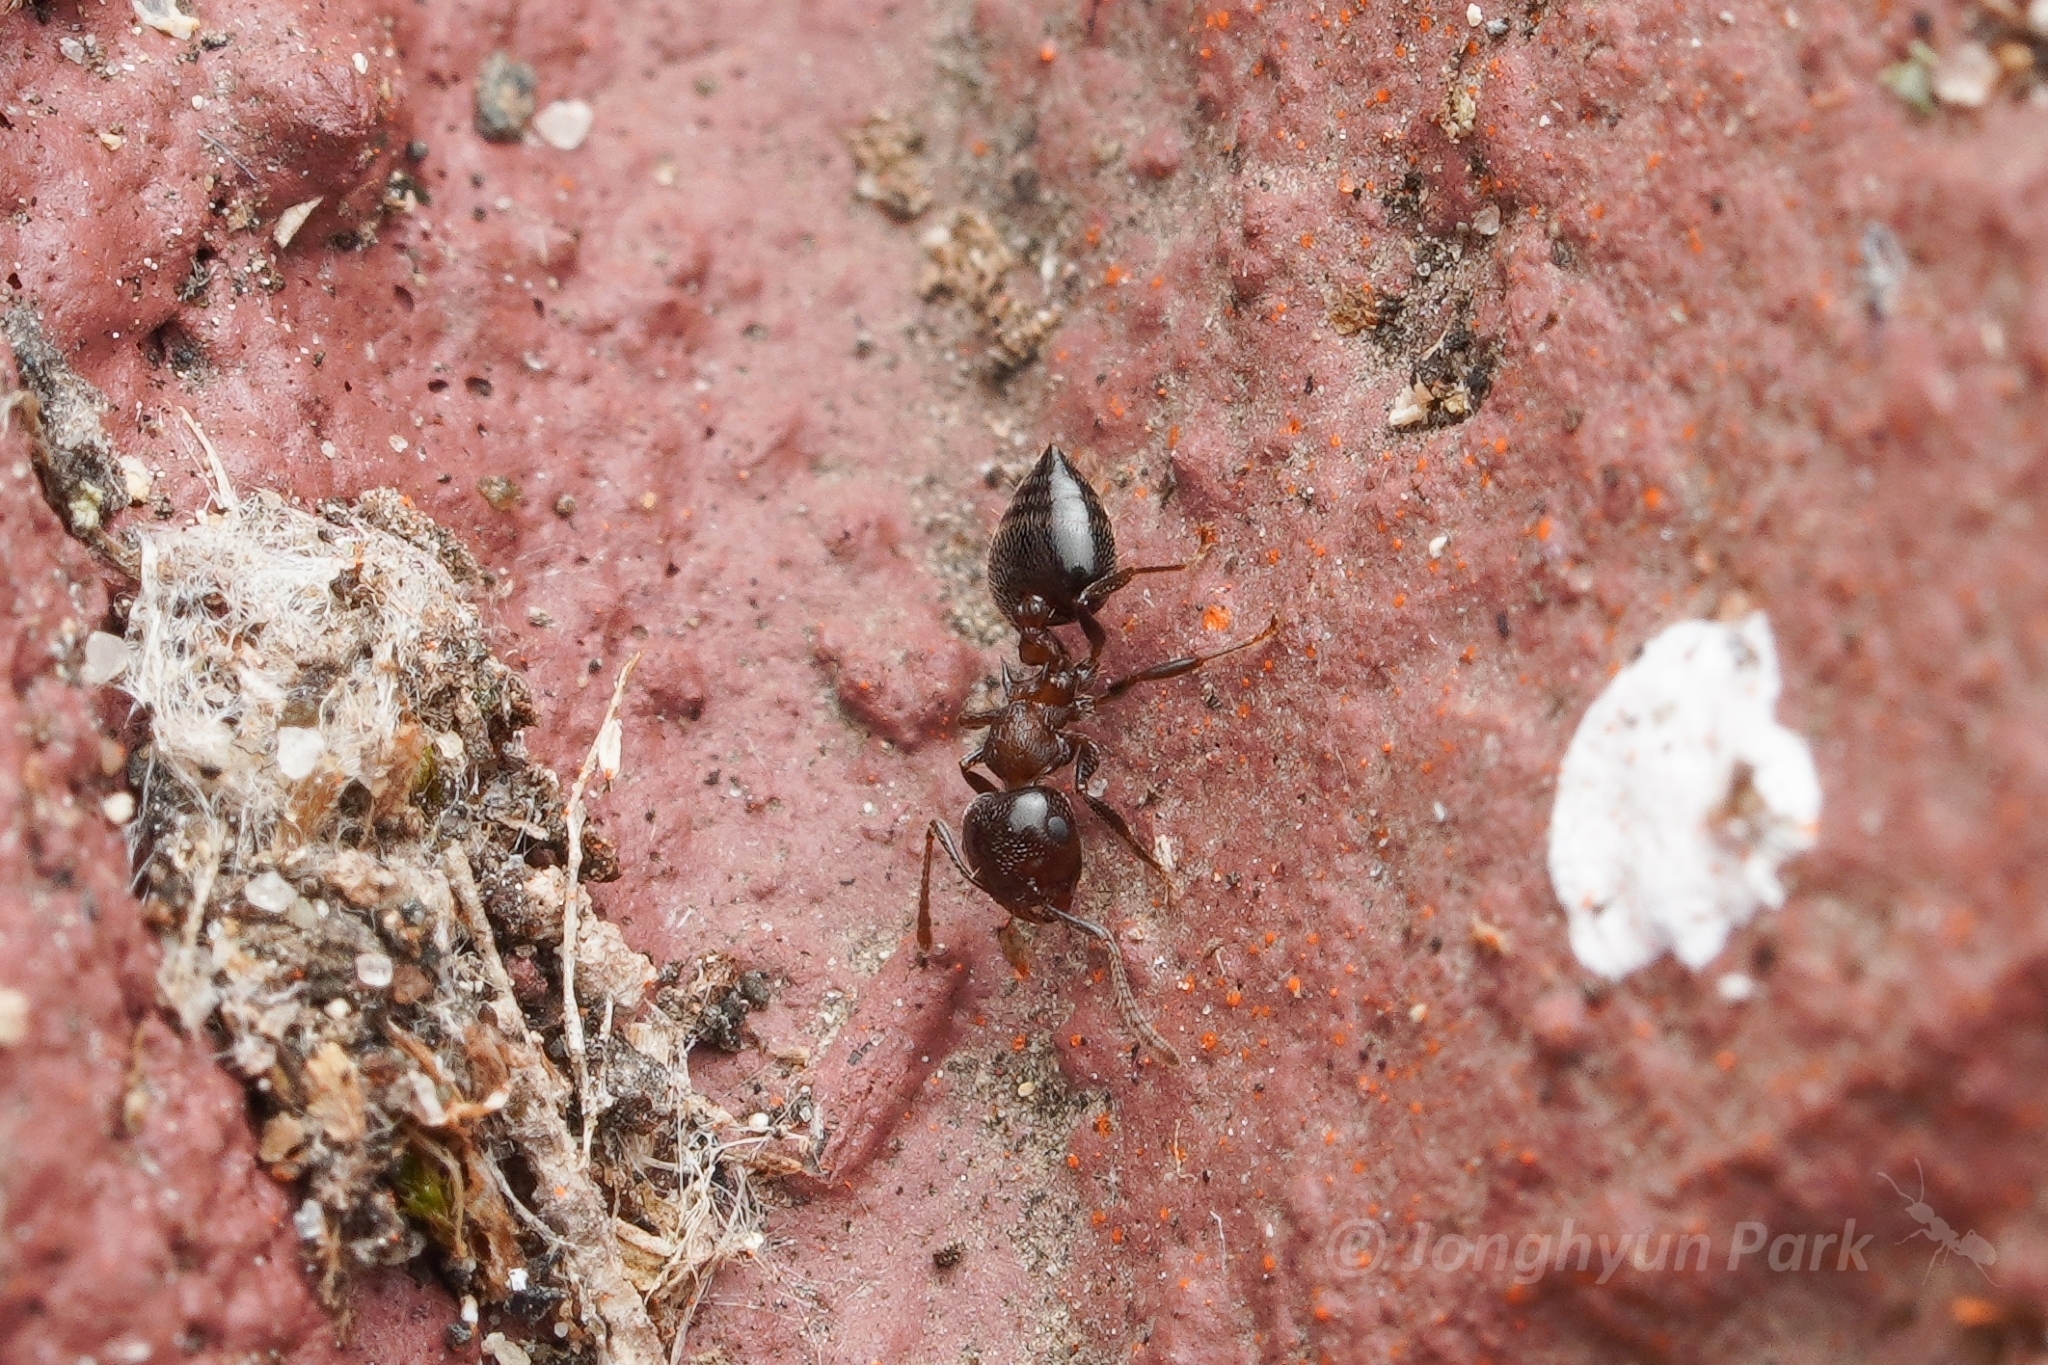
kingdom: Animalia
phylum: Arthropoda
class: Insecta
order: Hymenoptera
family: Formicidae
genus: Crematogaster
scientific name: Crematogaster cerasi
